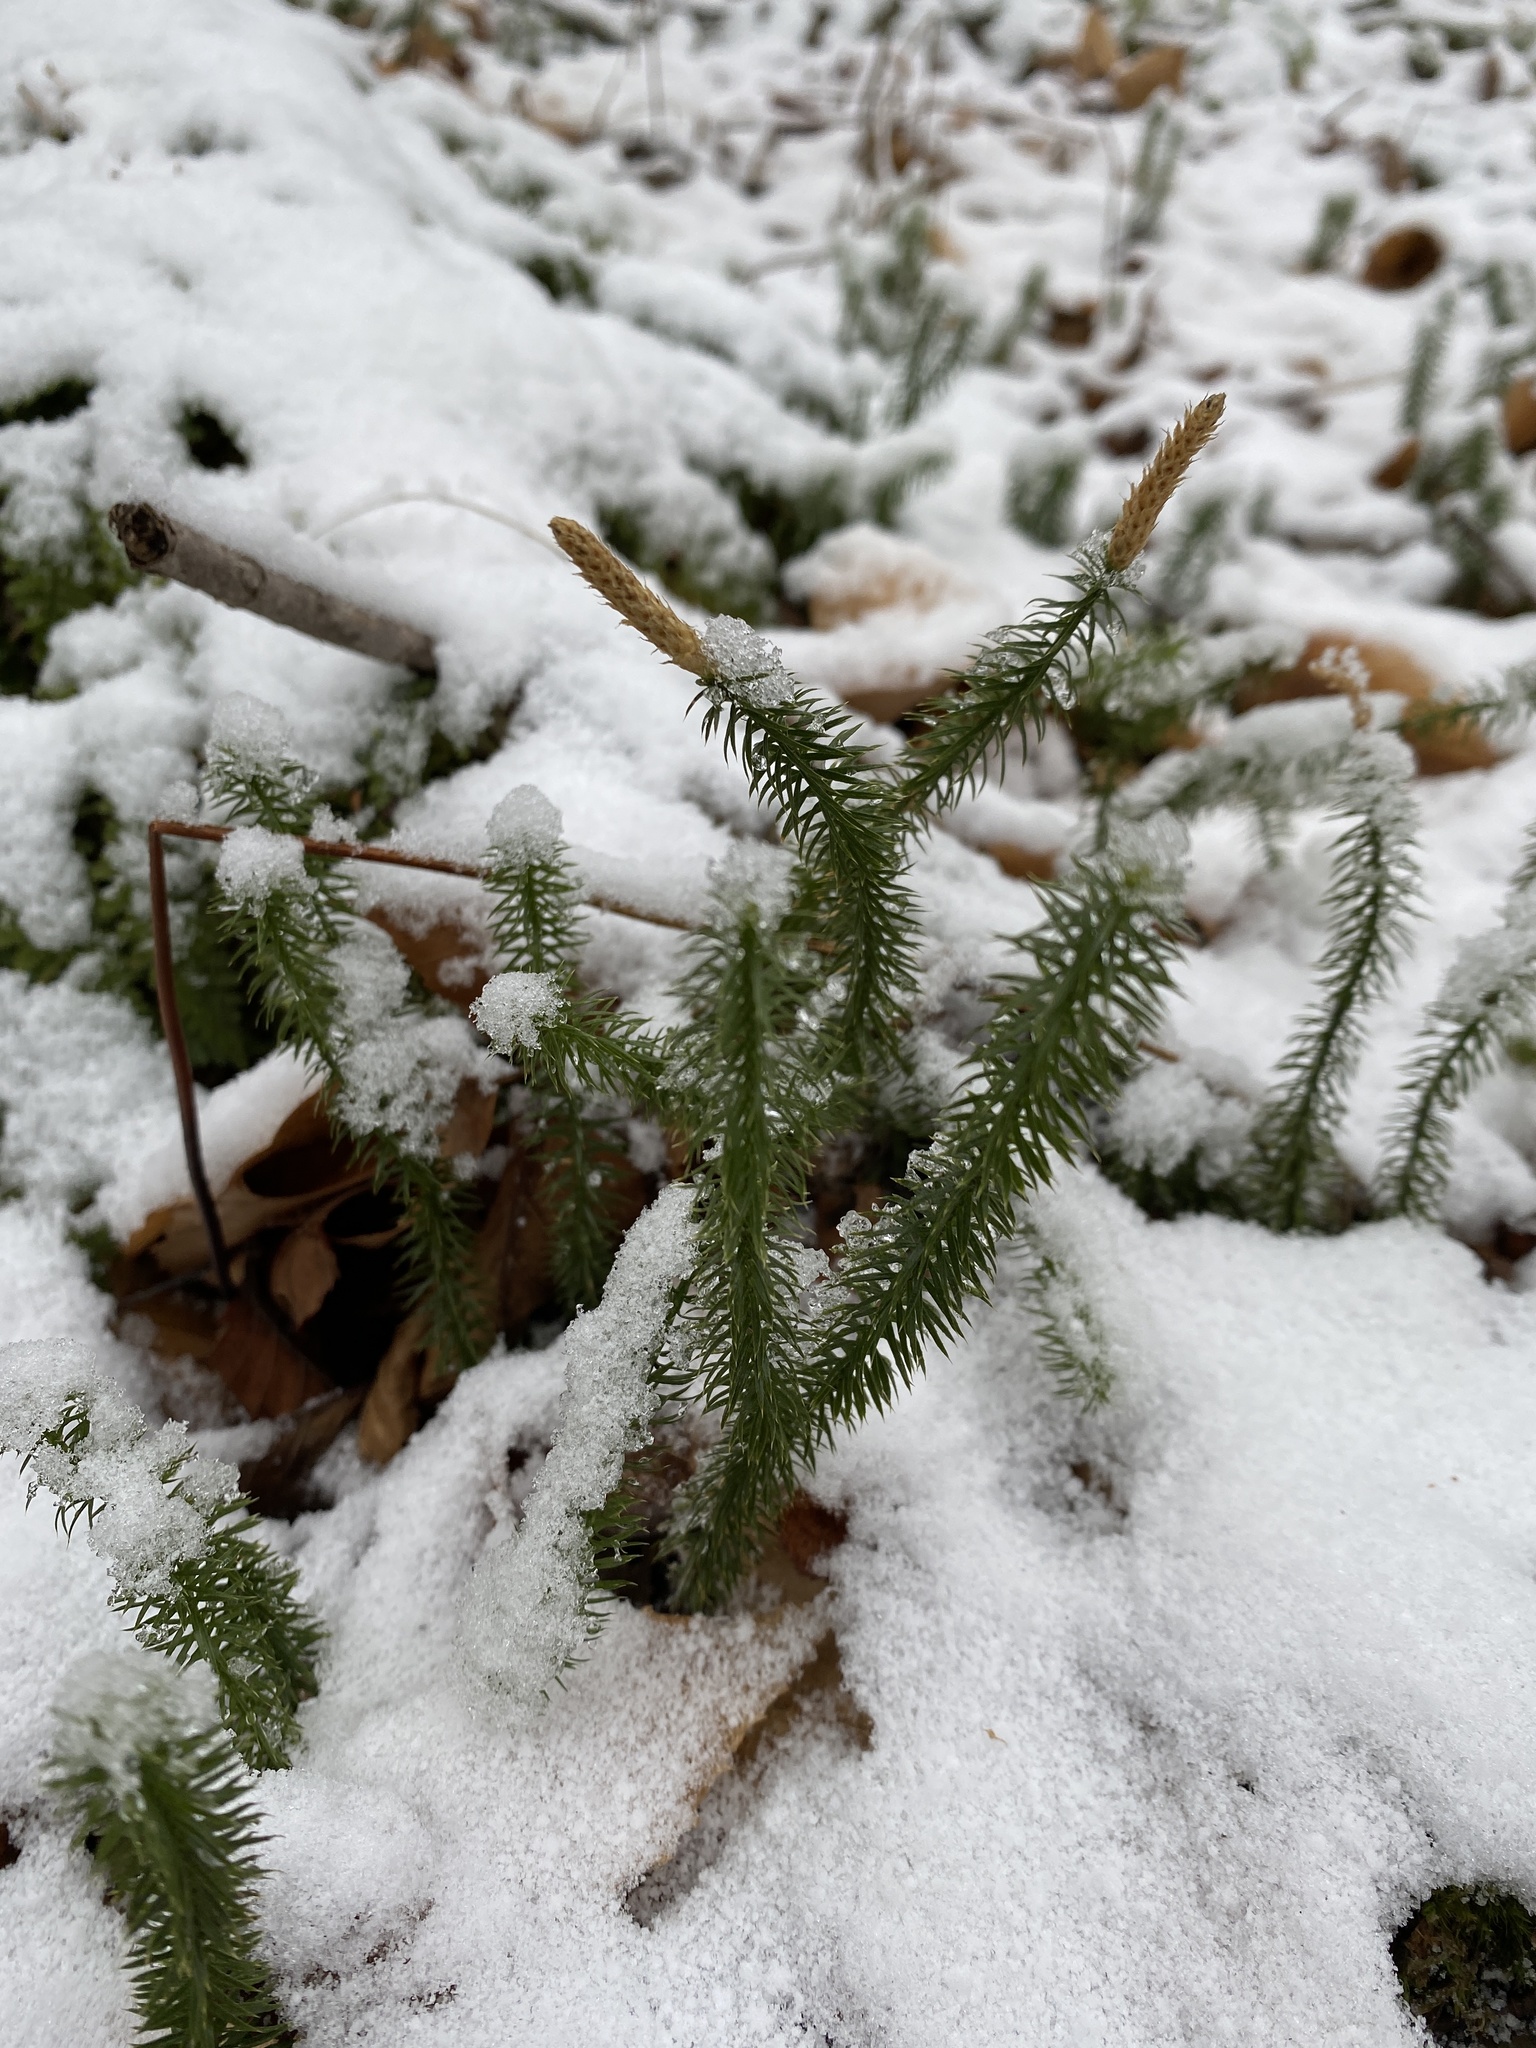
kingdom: Plantae
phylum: Tracheophyta
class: Lycopodiopsida
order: Lycopodiales
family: Lycopodiaceae
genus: Spinulum
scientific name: Spinulum annotinum
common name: Interrupted club-moss
